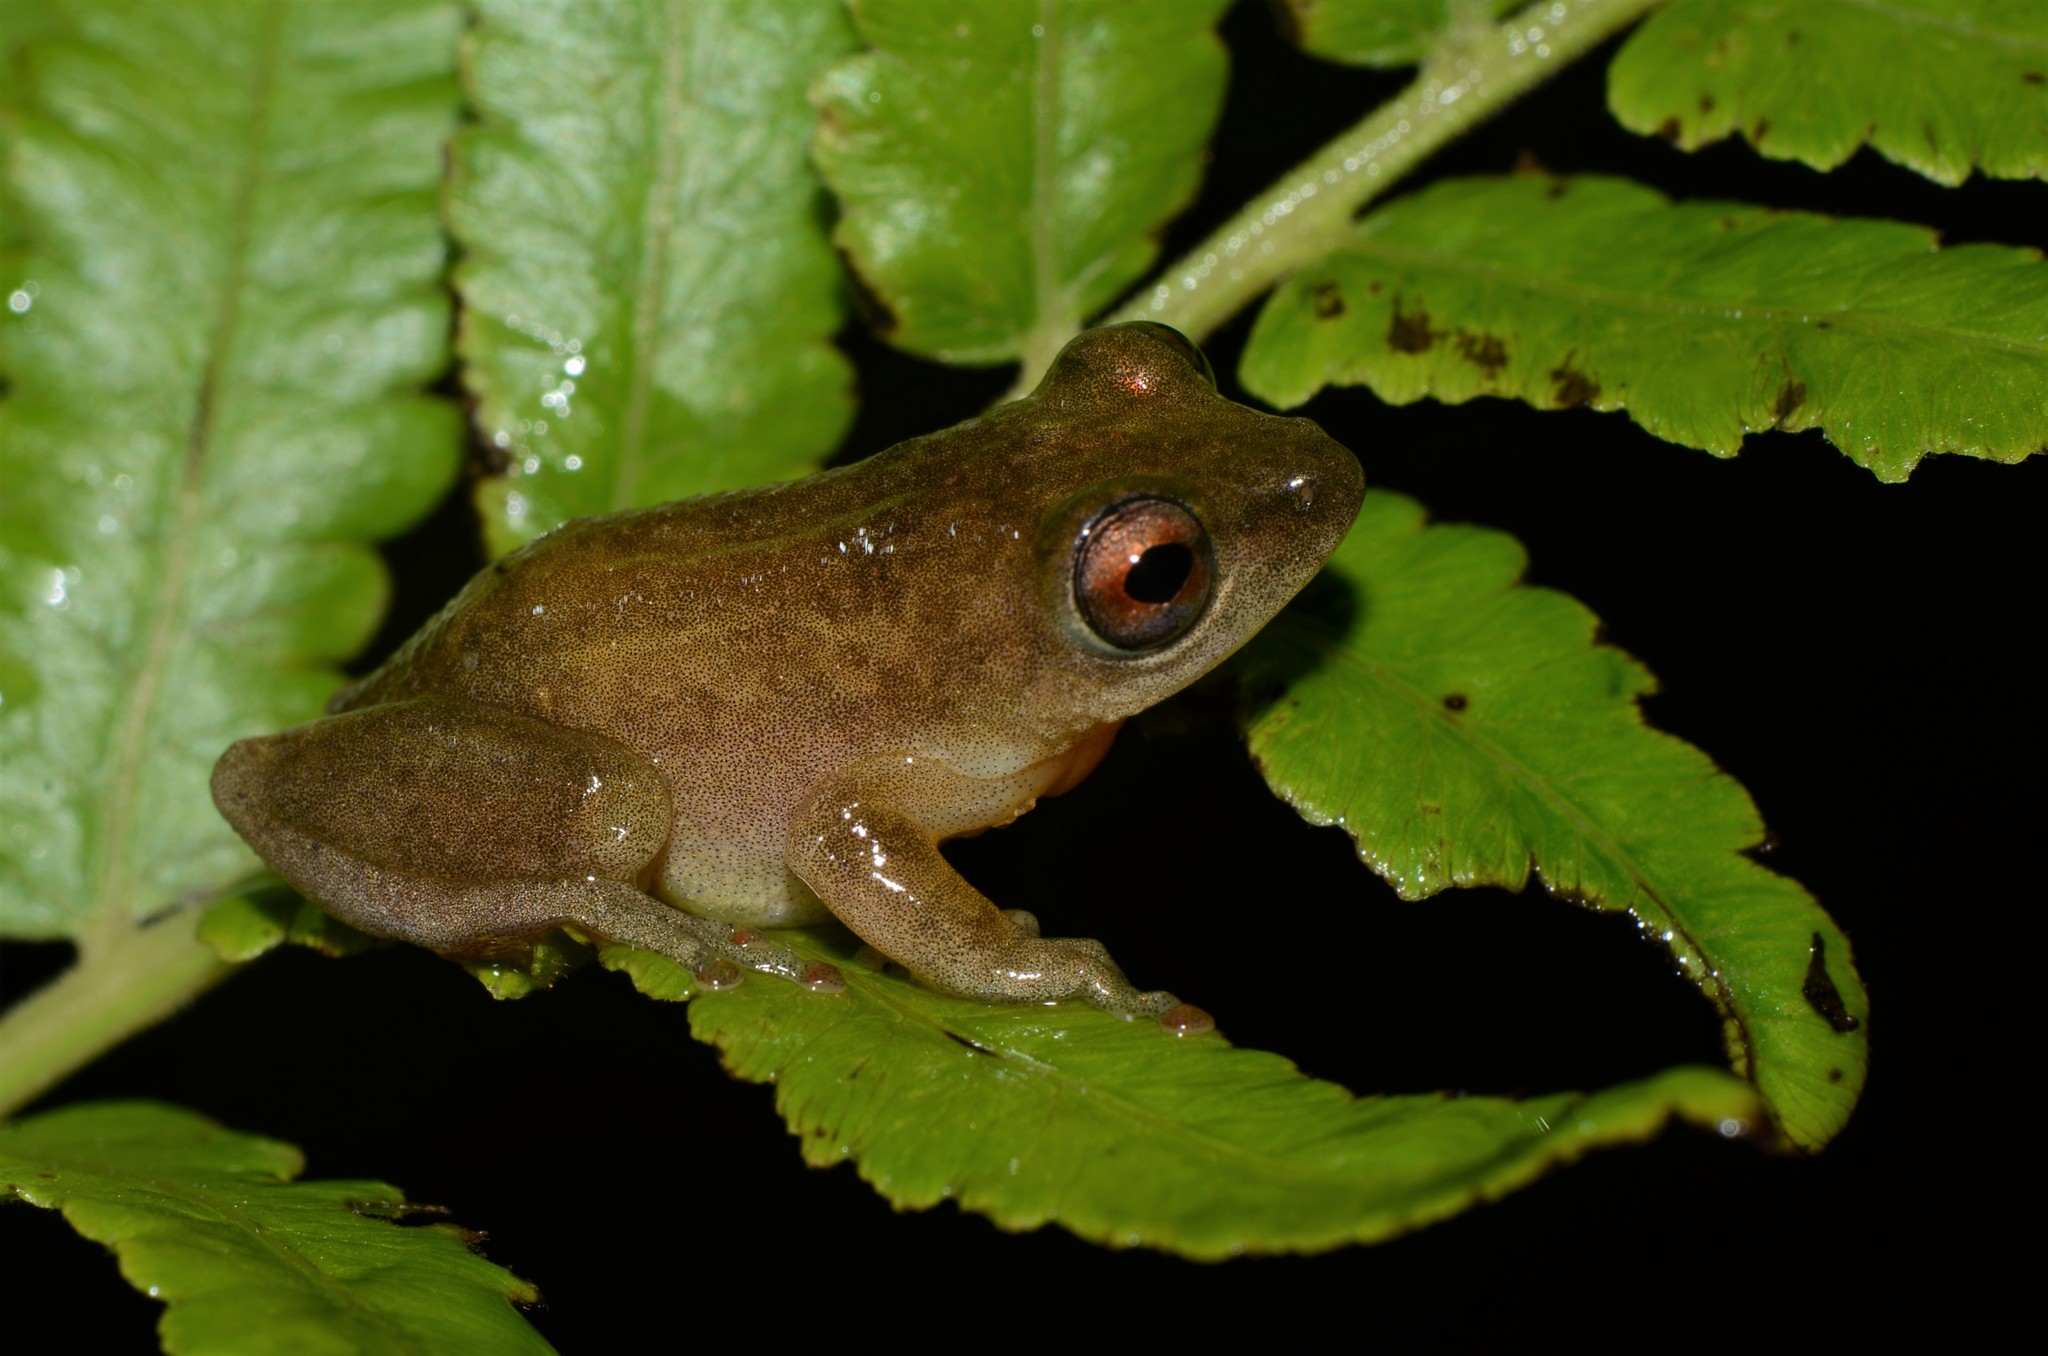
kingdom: Animalia
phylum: Chordata
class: Amphibia
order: Anura
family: Hyperoliidae
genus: Hyperolius
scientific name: Hyperolius stictus
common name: Yellow-spotted reed frog
